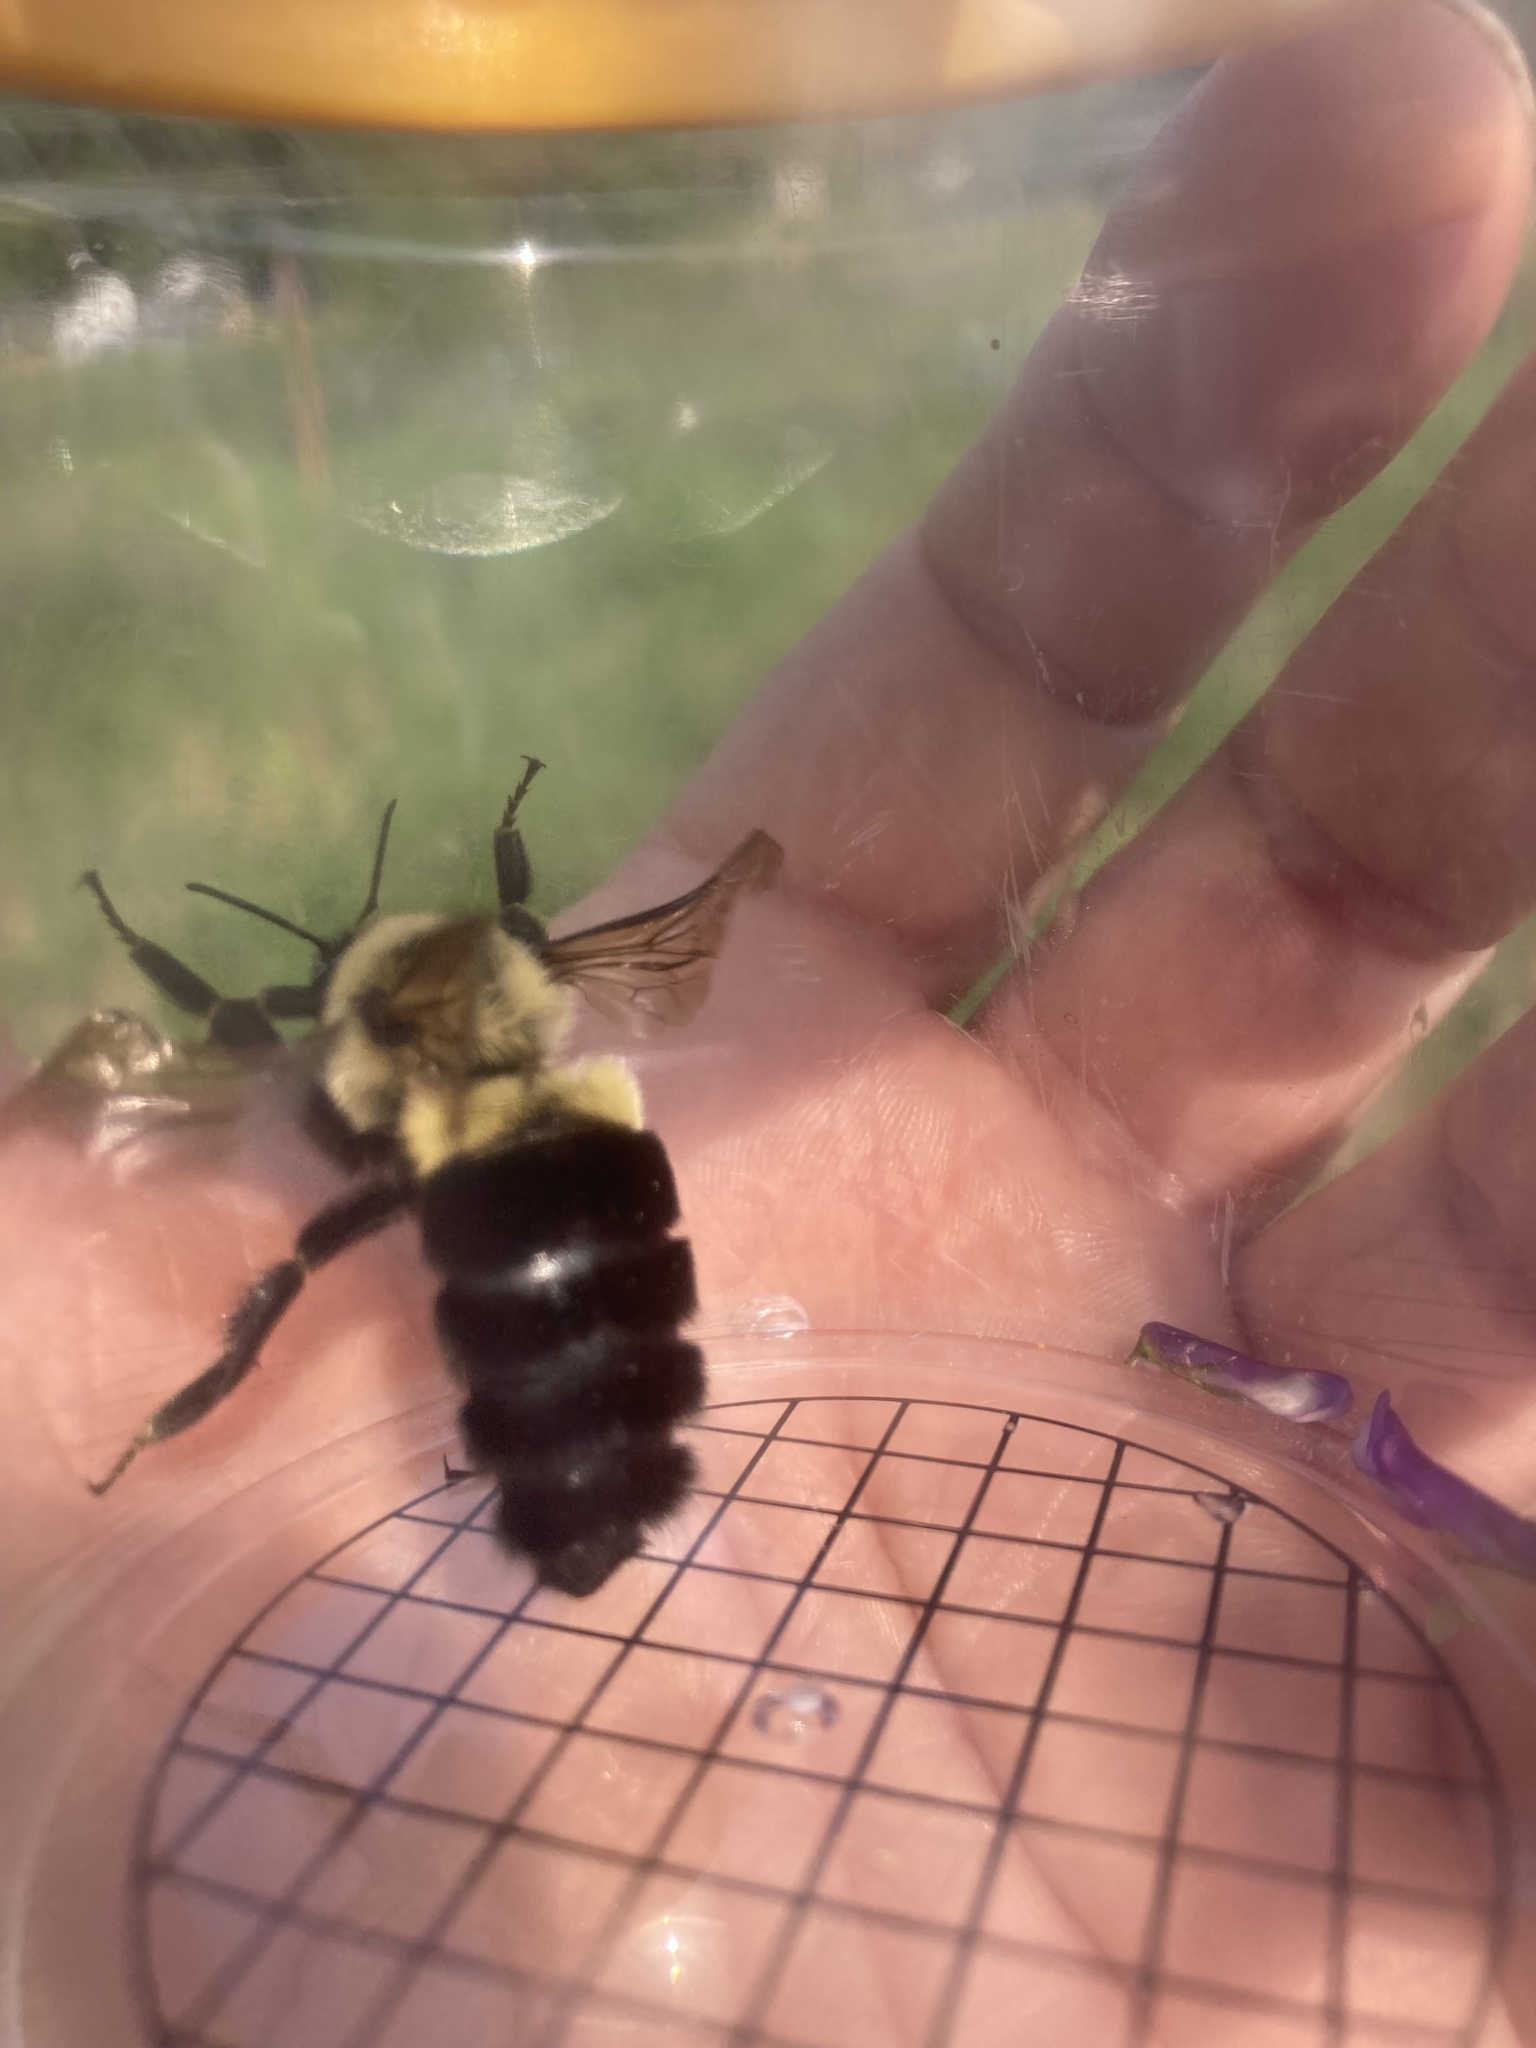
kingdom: Animalia
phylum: Arthropoda
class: Insecta
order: Hymenoptera
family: Apidae
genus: Bombus
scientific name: Bombus impatiens
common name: Common eastern bumble bee
